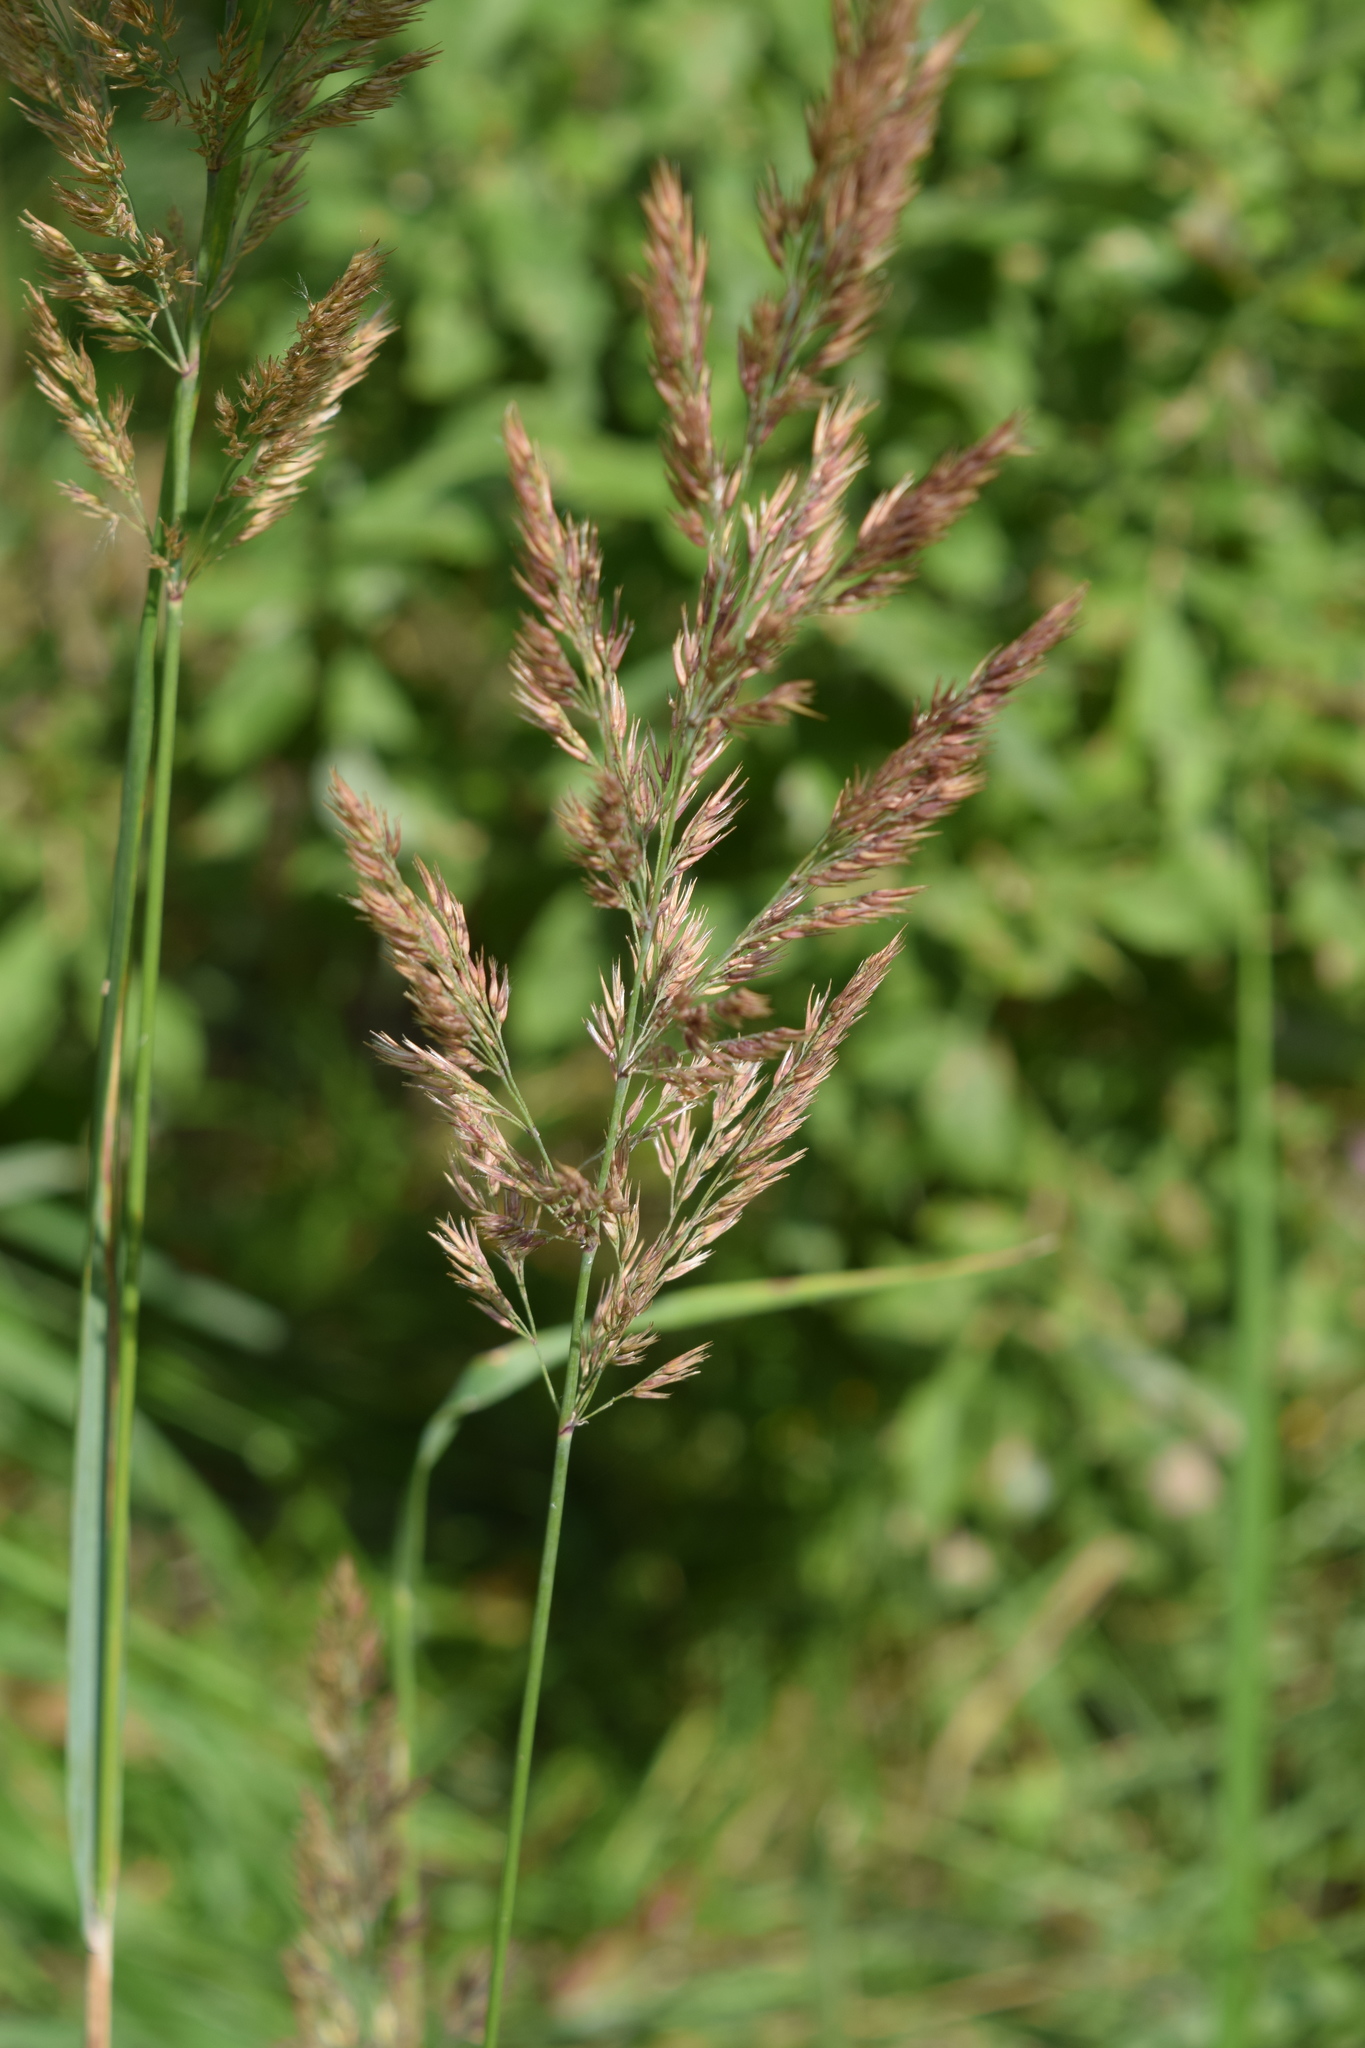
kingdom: Plantae
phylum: Tracheophyta
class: Liliopsida
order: Poales
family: Poaceae
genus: Calamagrostis
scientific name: Calamagrostis epigejos
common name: Wood small-reed
